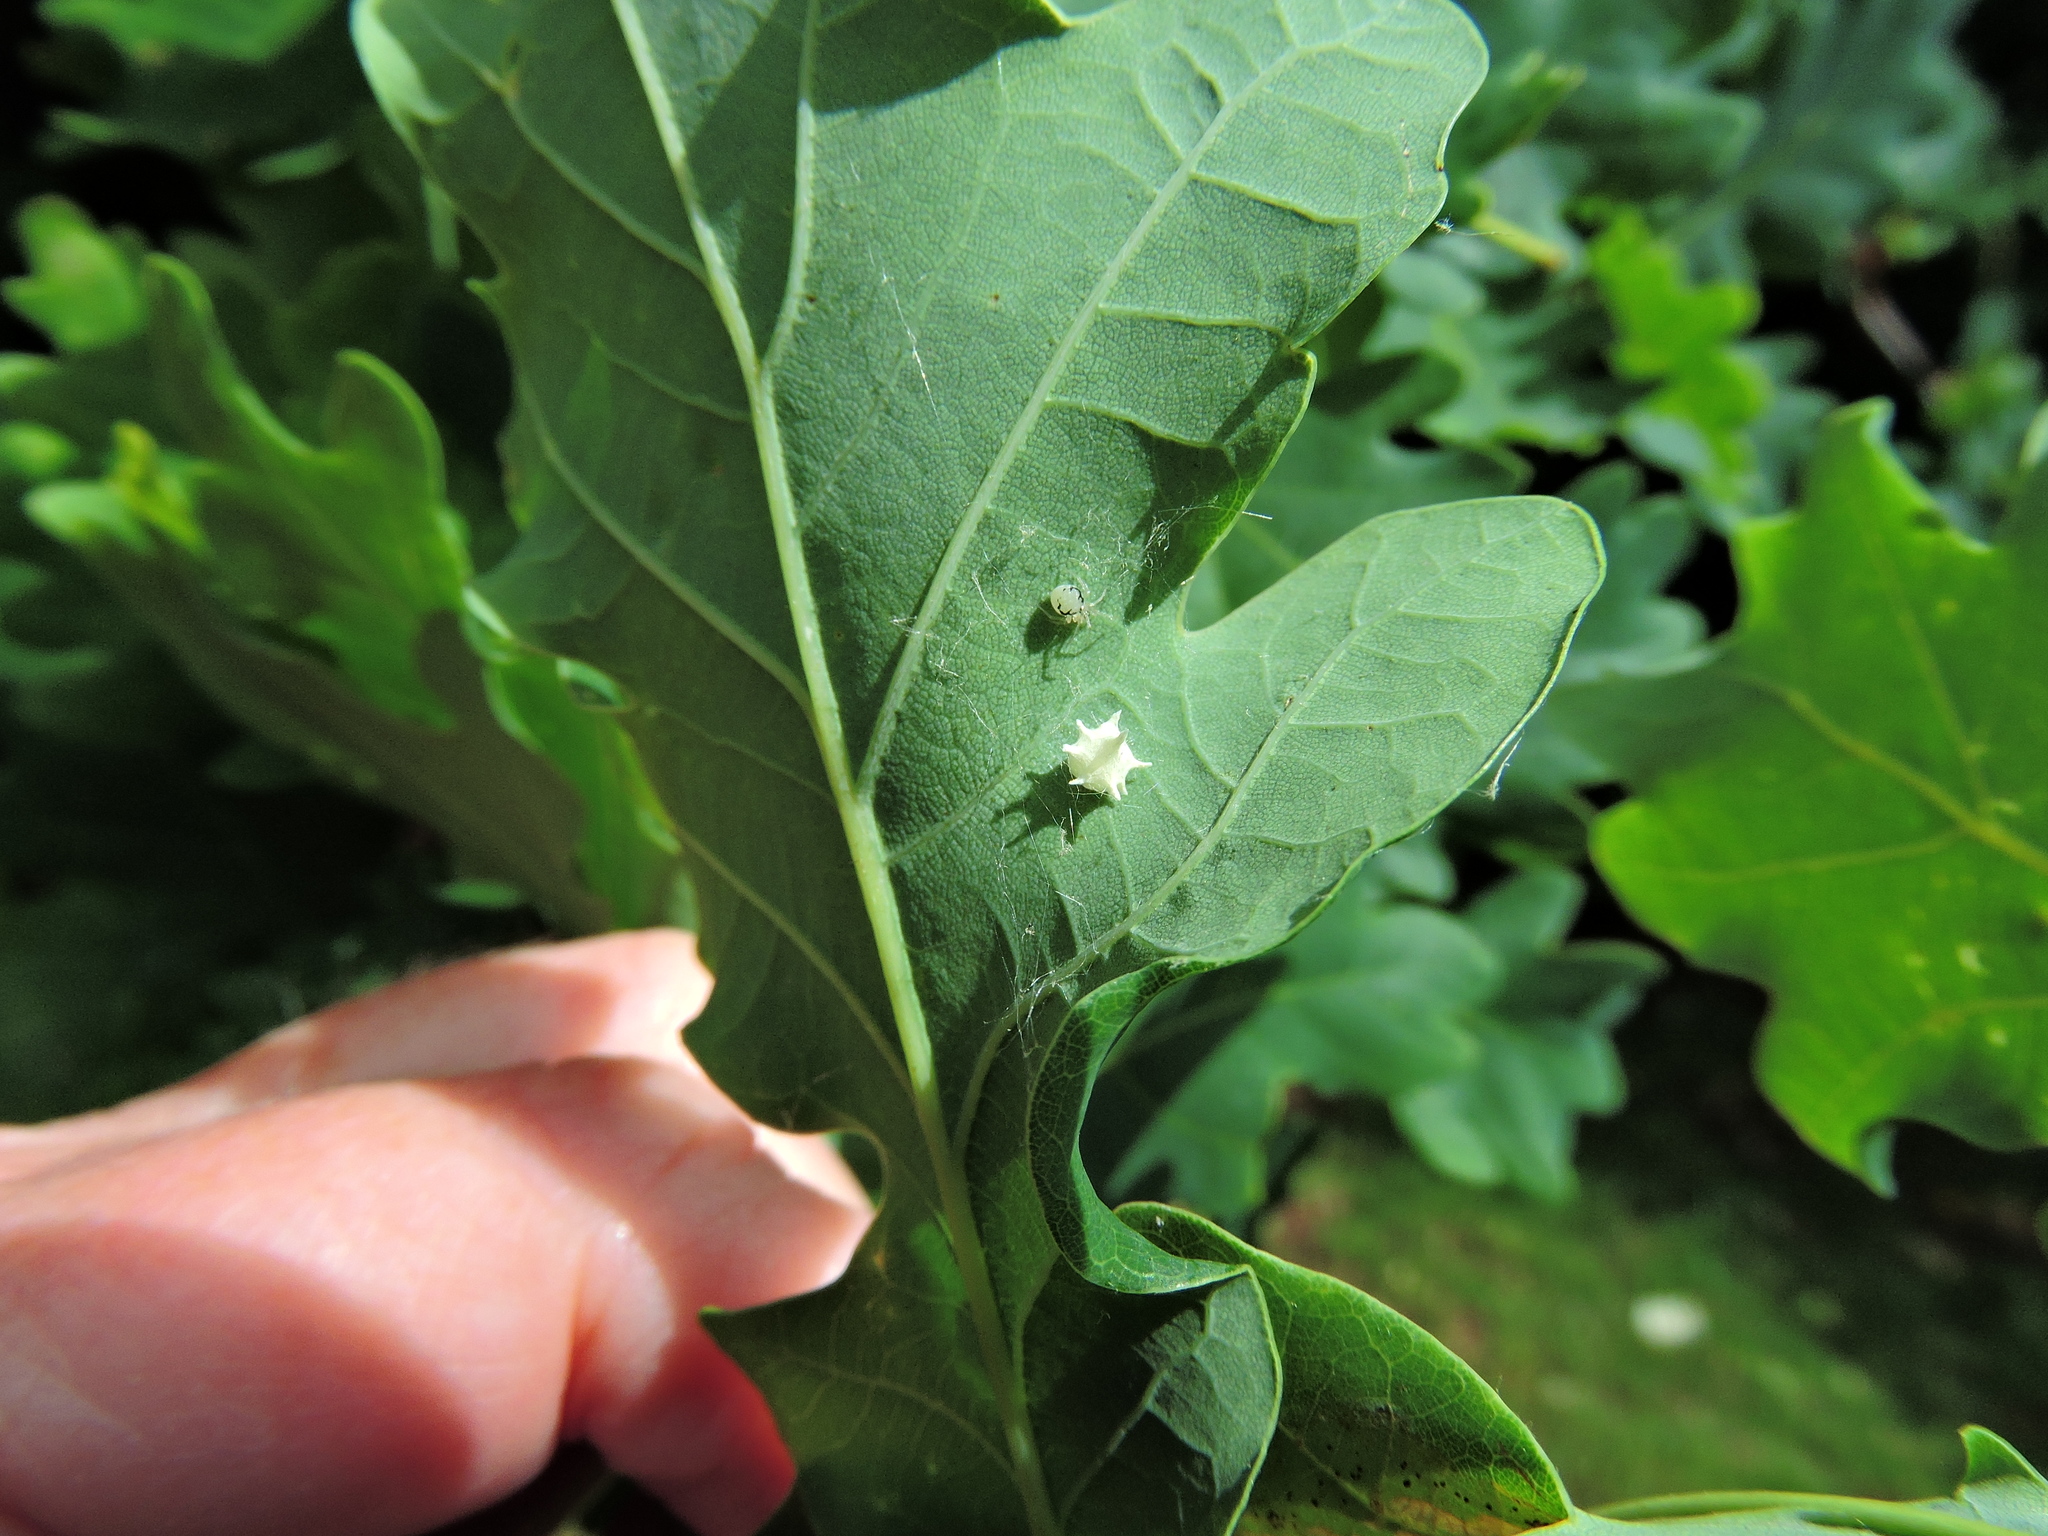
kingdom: Animalia
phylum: Arthropoda
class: Arachnida
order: Araneae
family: Theridiidae
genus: Paidiscura
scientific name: Paidiscura pallens
